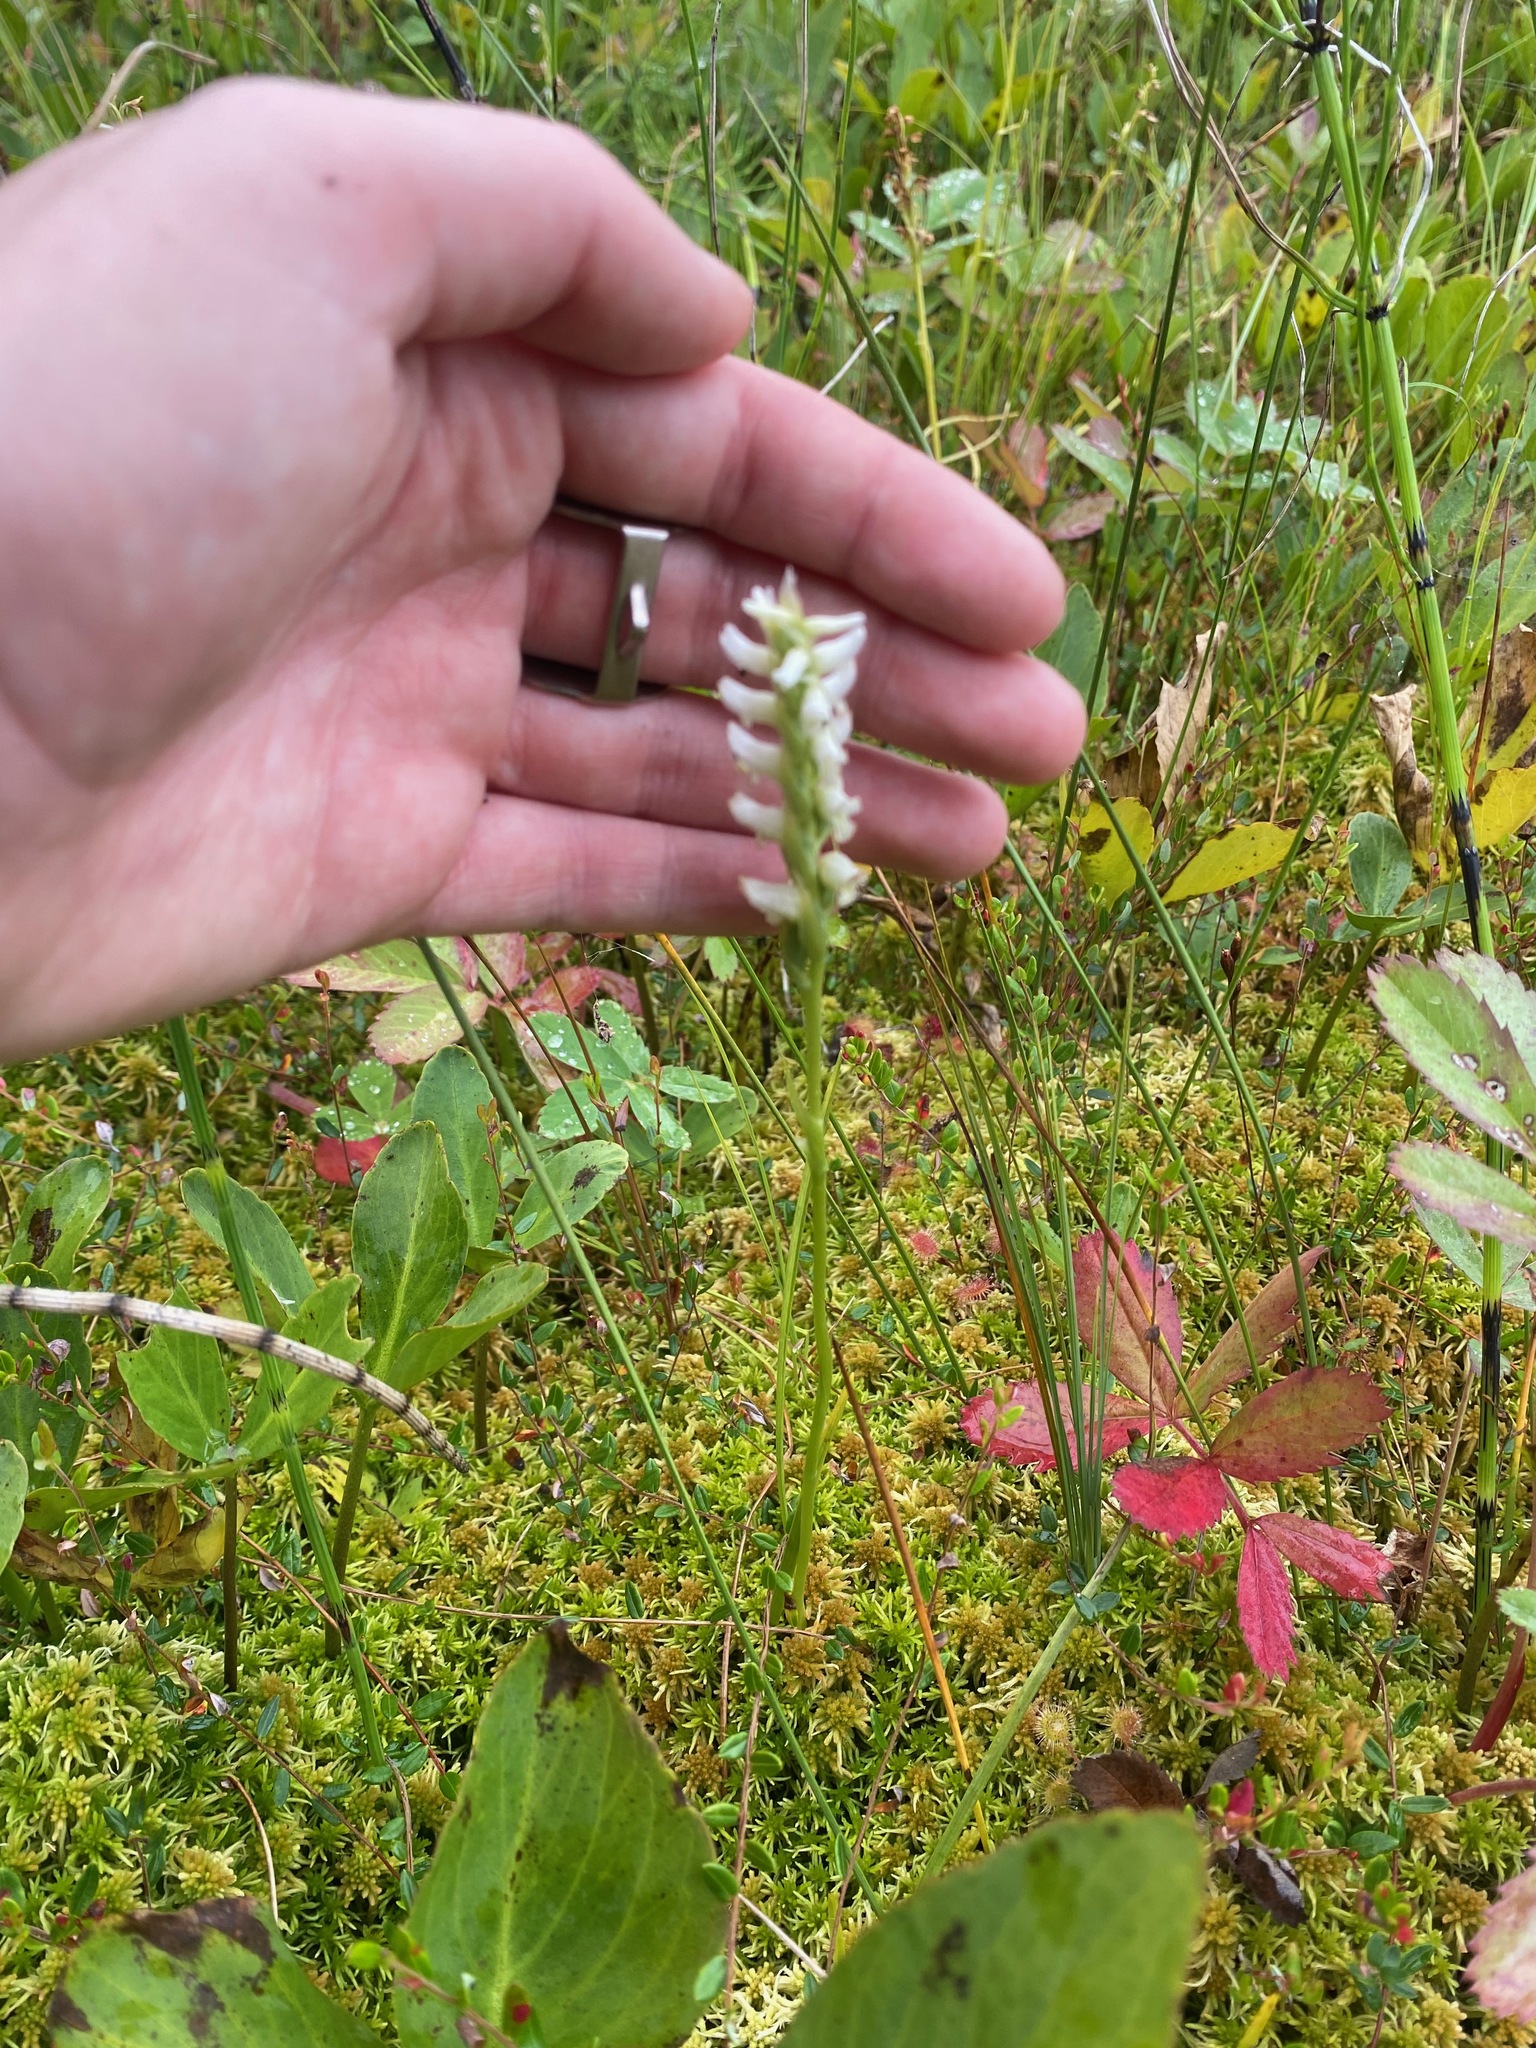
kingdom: Plantae
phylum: Tracheophyta
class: Liliopsida
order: Asparagales
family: Orchidaceae
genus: Spiranthes
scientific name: Spiranthes romanzoffiana
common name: Irish lady's-tresses
